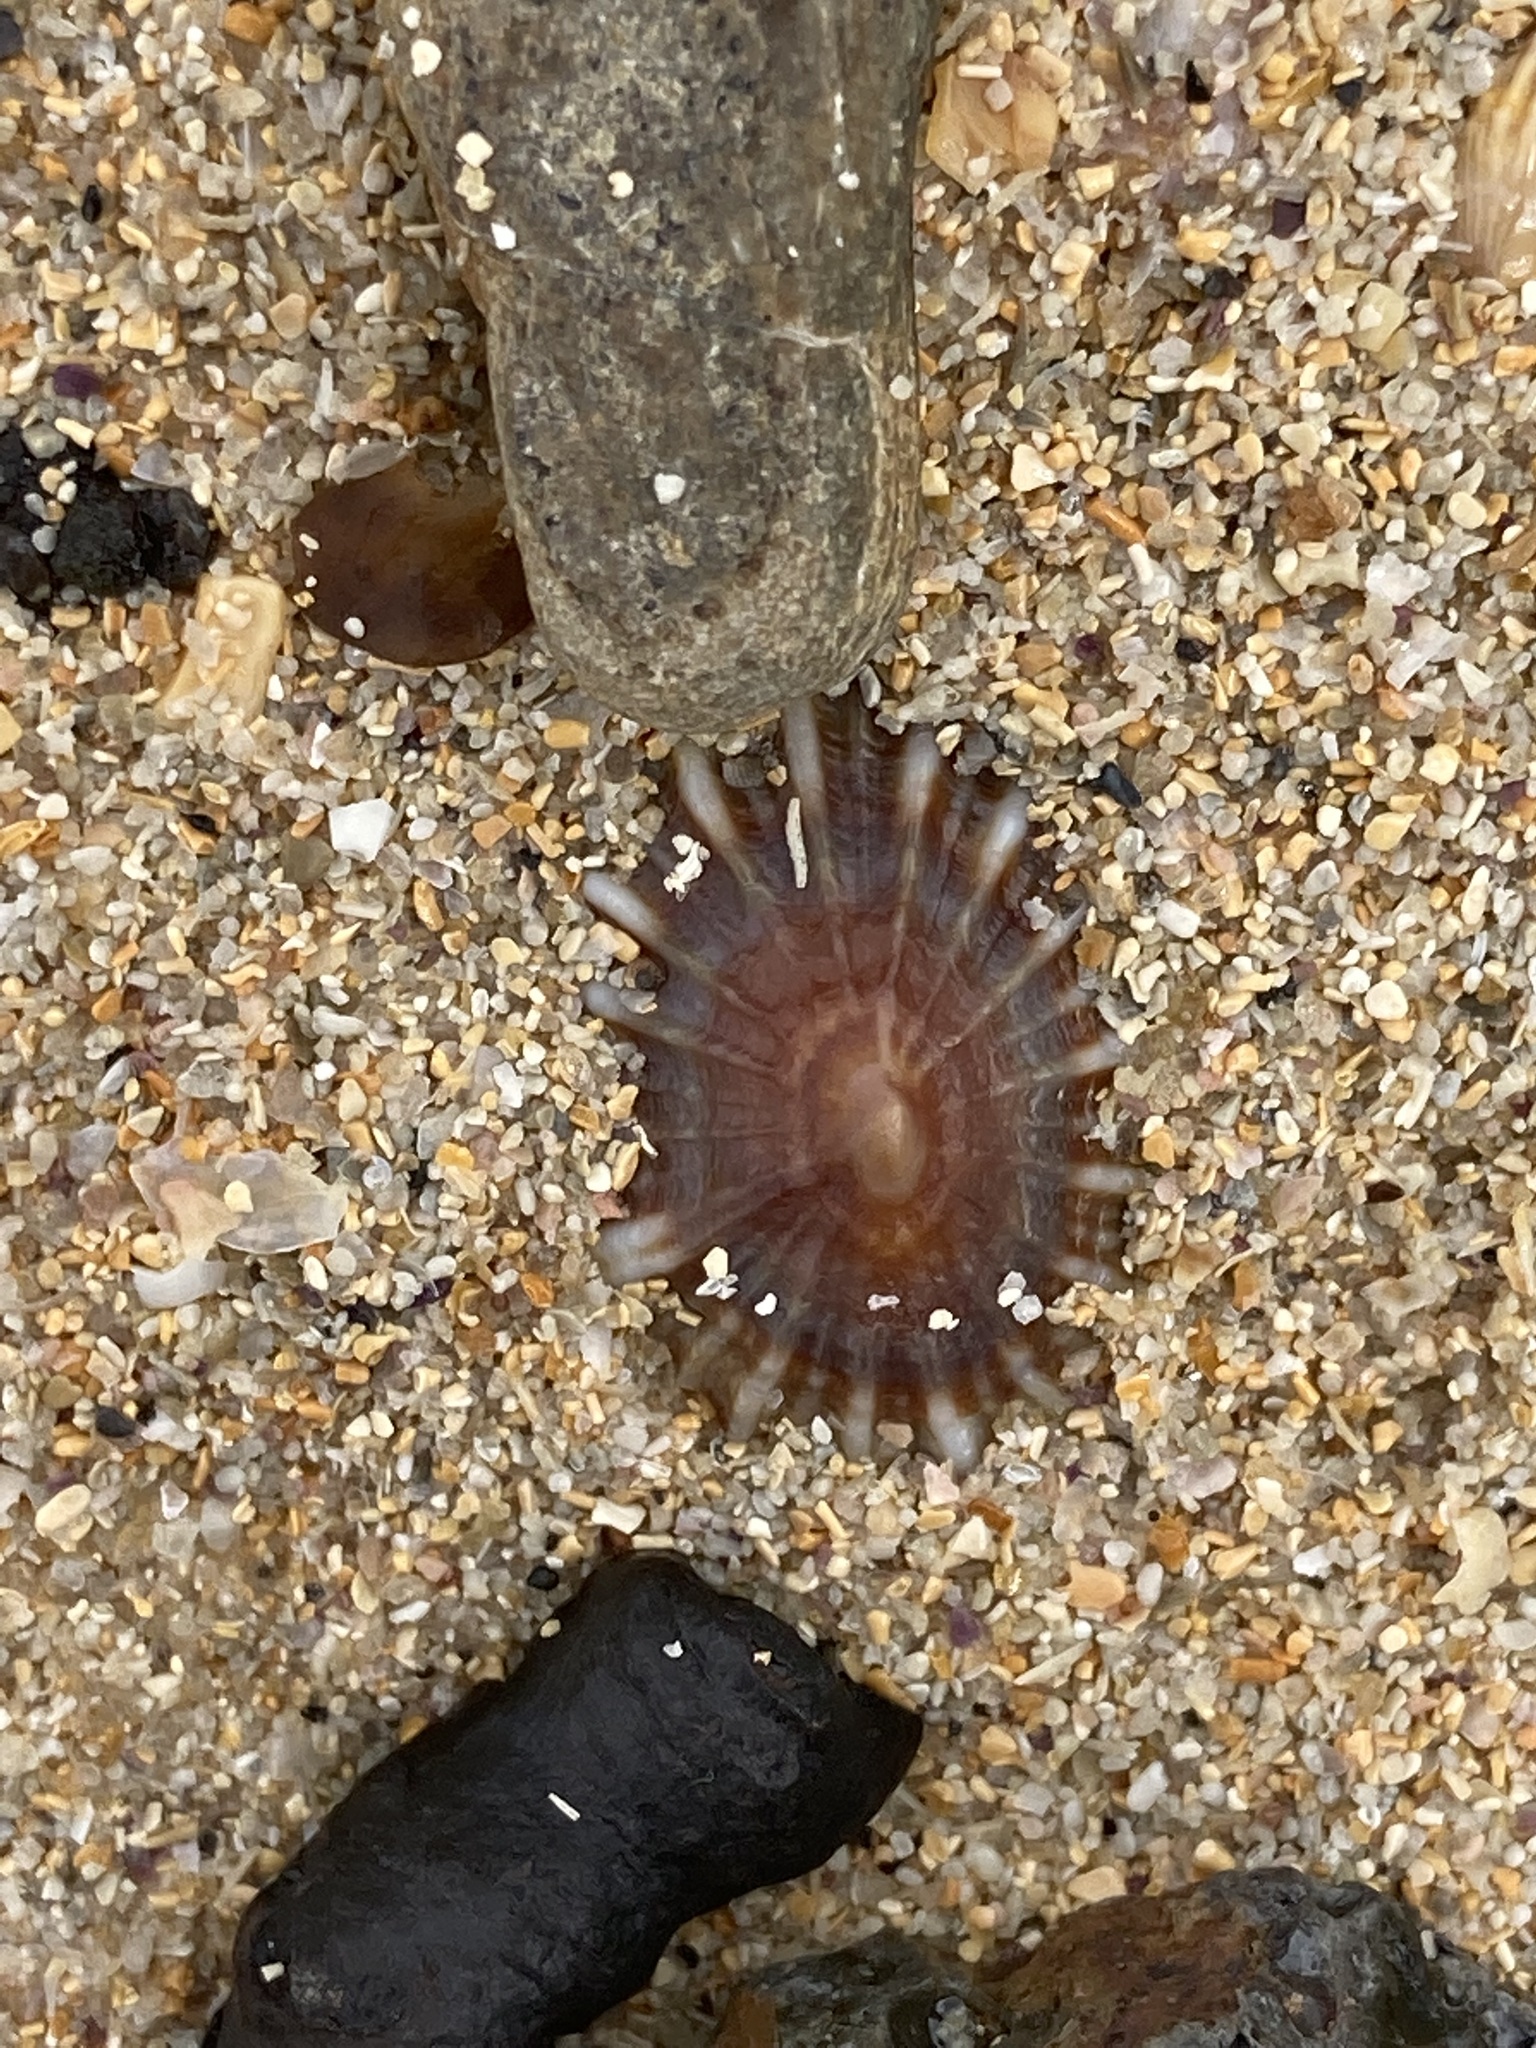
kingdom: Animalia
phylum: Mollusca
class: Gastropoda
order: Siphonariida
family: Siphonariidae
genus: Siphonaria
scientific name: Siphonaria denticulata
